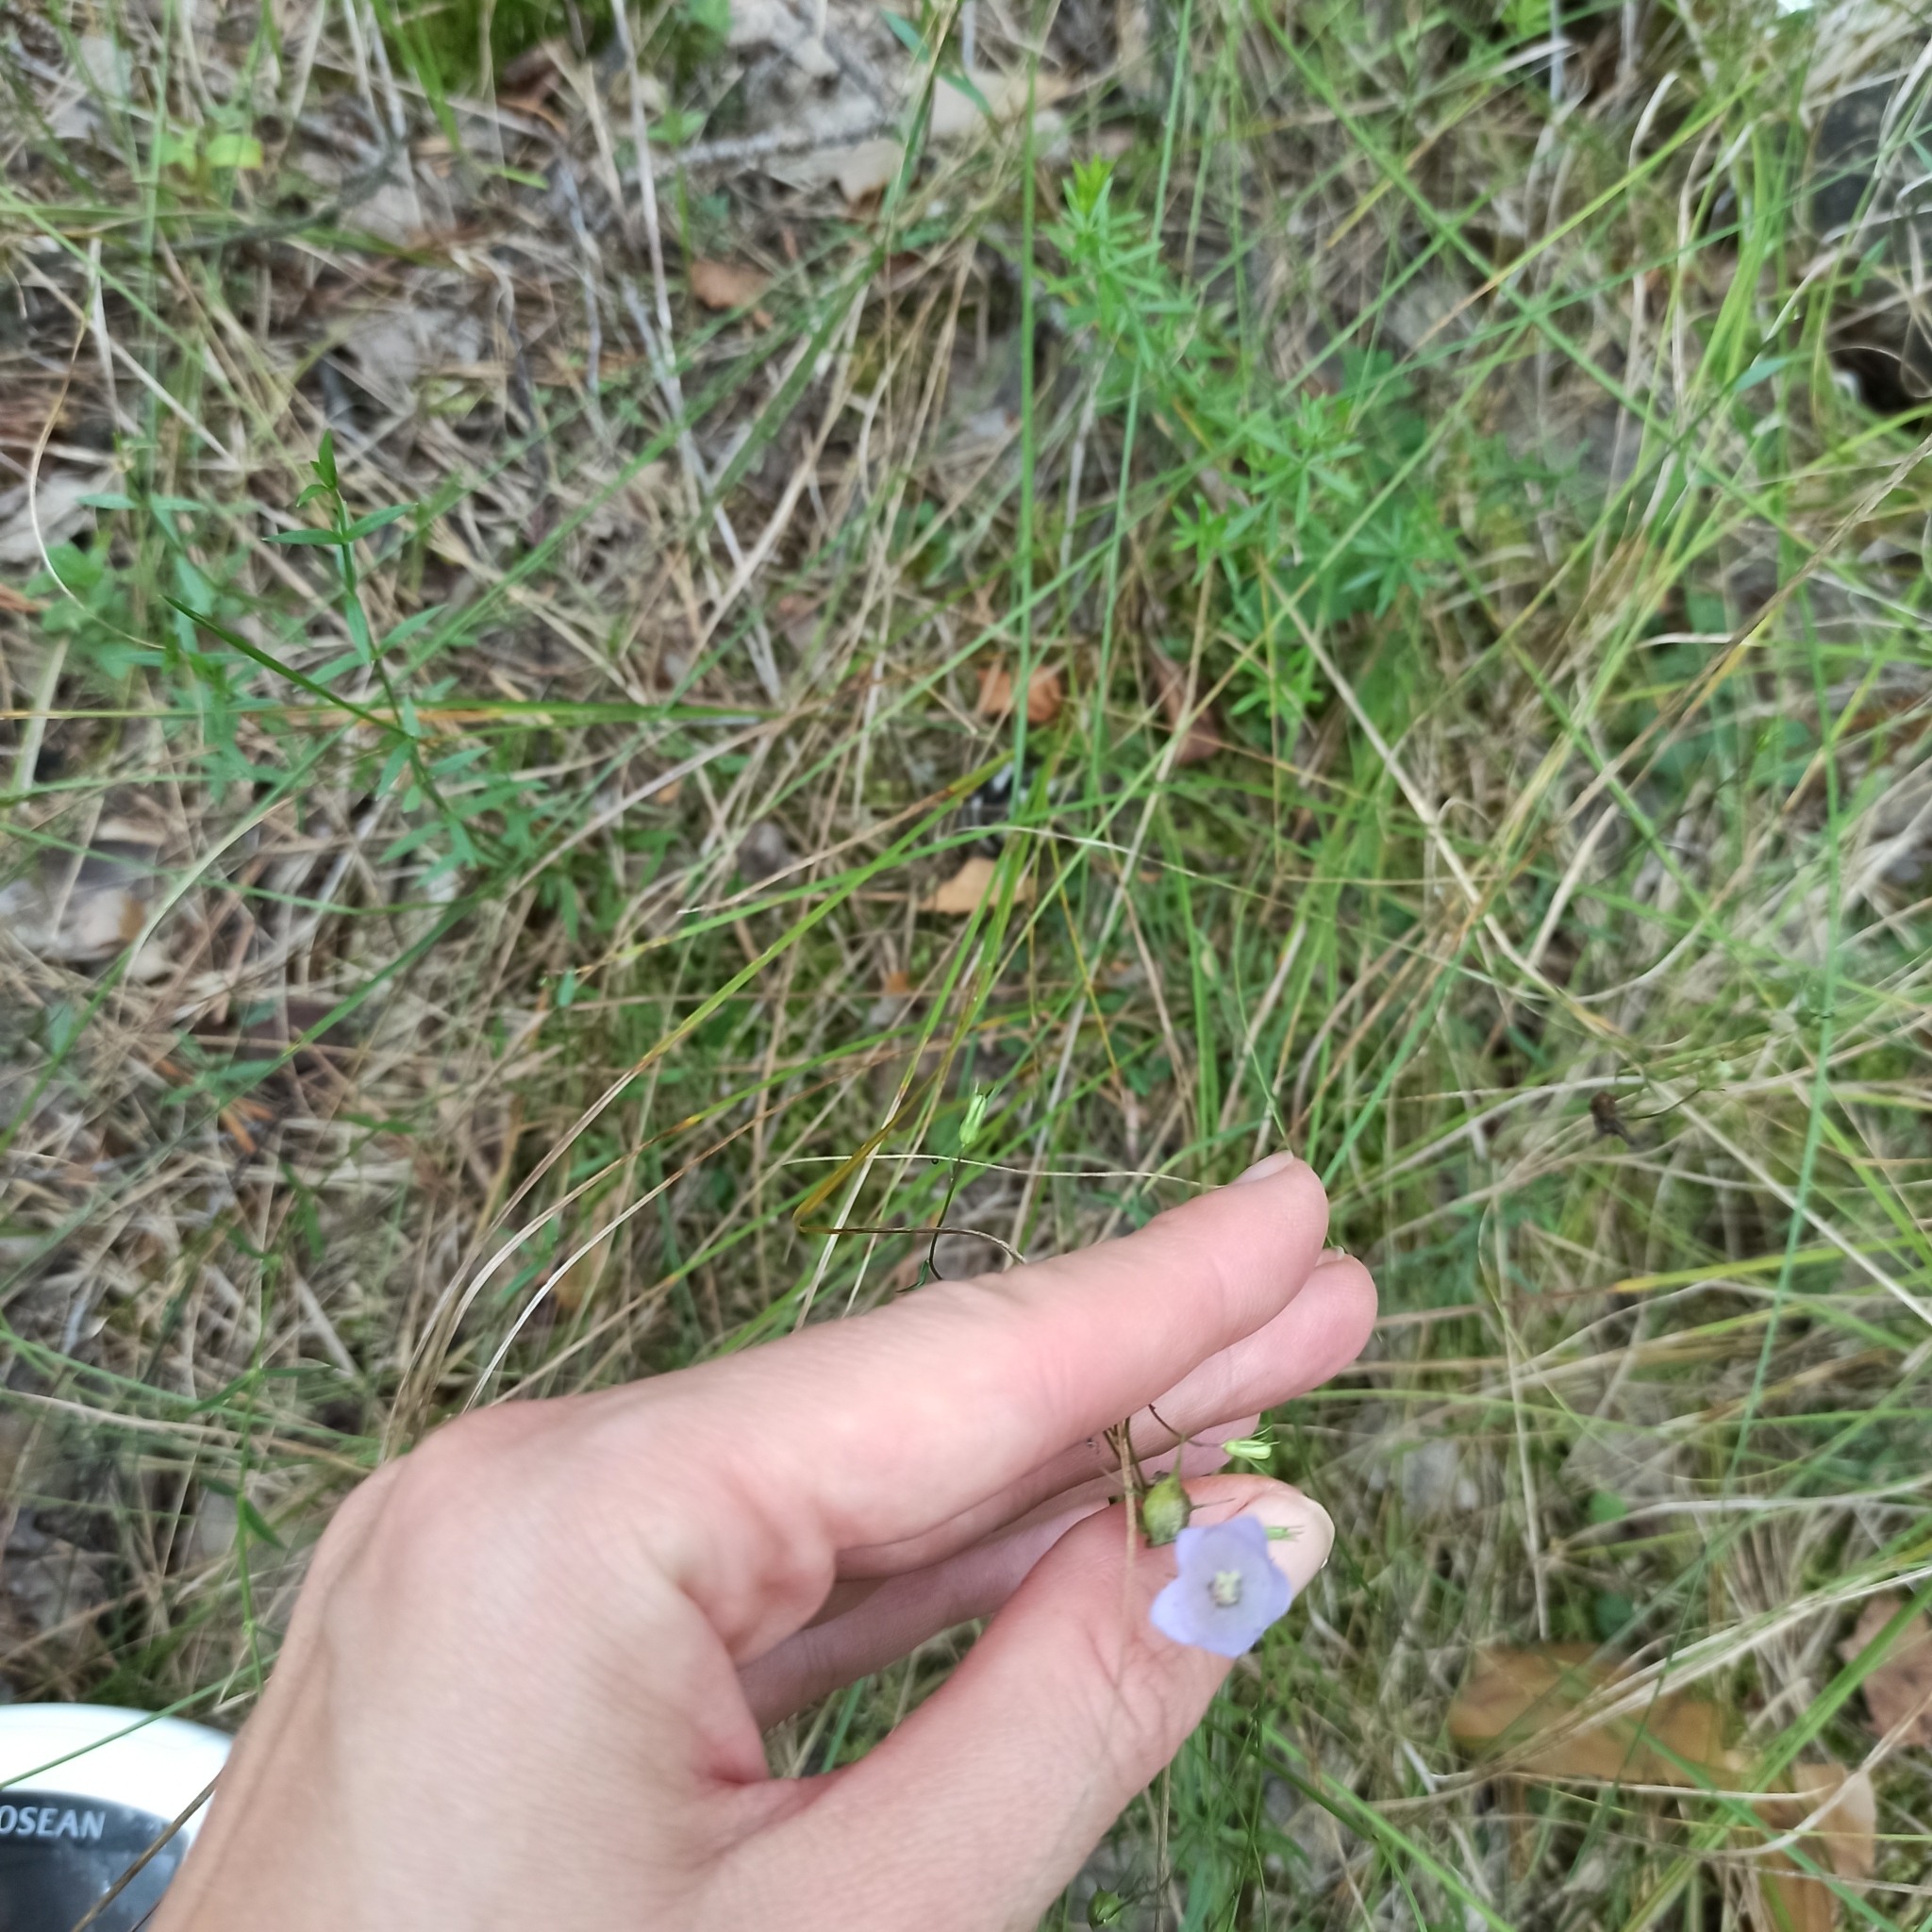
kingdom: Plantae
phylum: Tracheophyta
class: Magnoliopsida
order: Asterales
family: Campanulaceae
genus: Campanula
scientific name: Campanula rotundifolia
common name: Harebell
